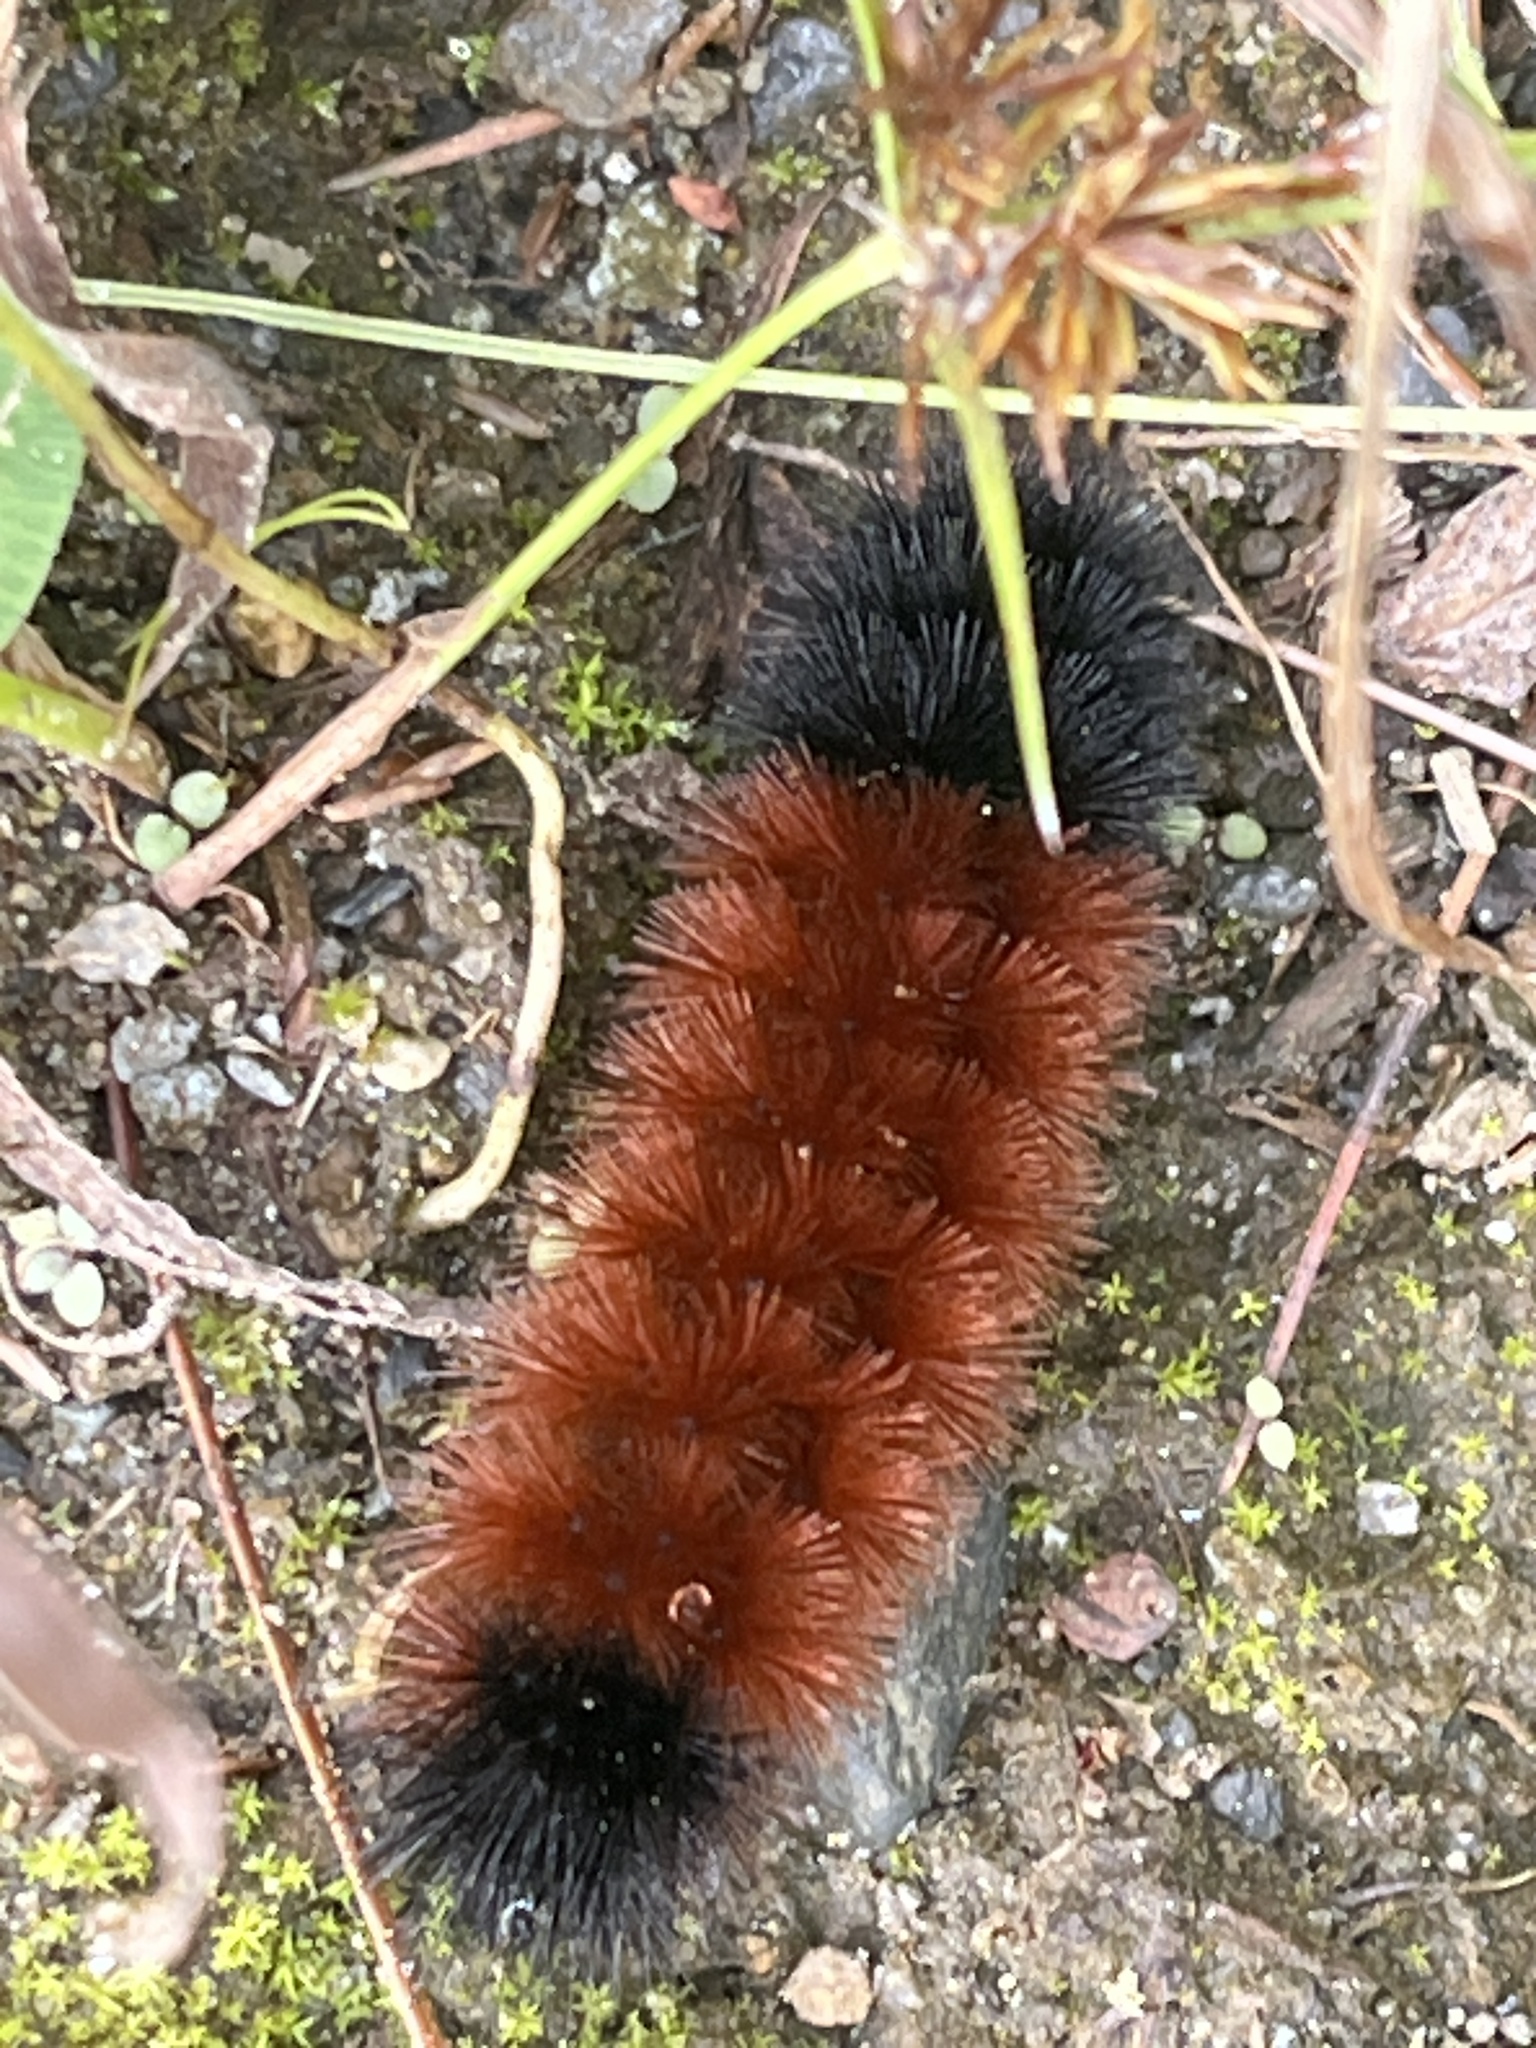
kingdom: Animalia
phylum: Arthropoda
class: Insecta
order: Lepidoptera
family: Erebidae
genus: Pyrrharctia
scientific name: Pyrrharctia isabella
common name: Isabella tiger moth
